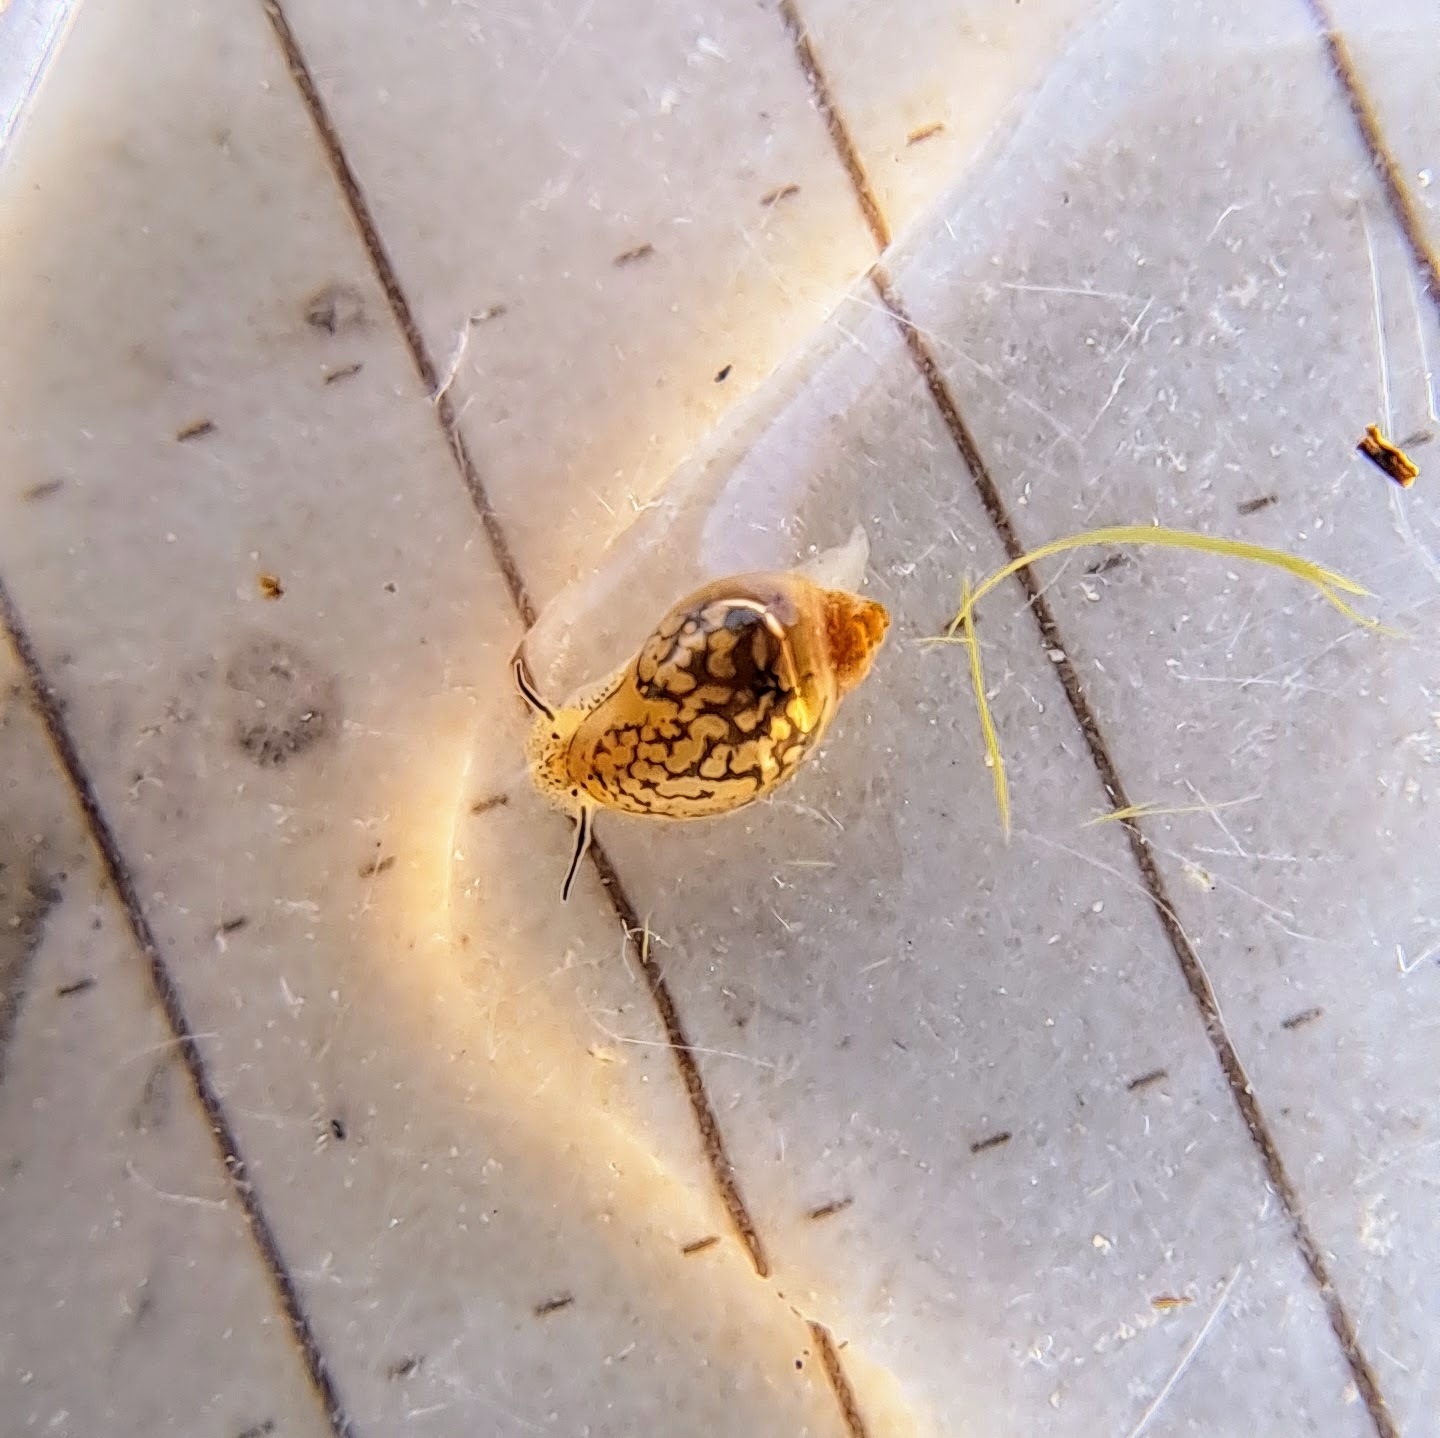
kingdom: Animalia
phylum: Mollusca
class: Gastropoda
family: Physidae
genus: Physella
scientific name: Physella
